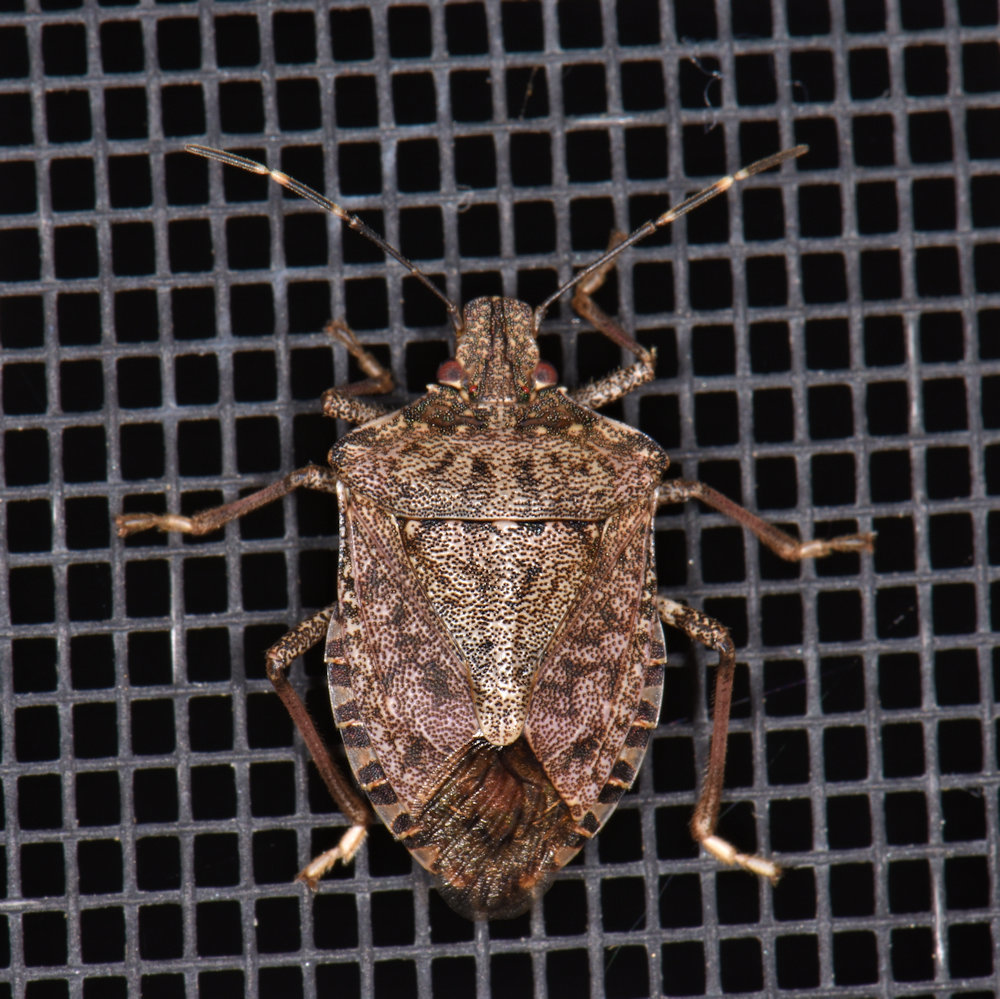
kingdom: Animalia
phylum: Arthropoda
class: Insecta
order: Hemiptera
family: Pentatomidae
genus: Halyomorpha
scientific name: Halyomorpha halys
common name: Brown marmorated stink bug
